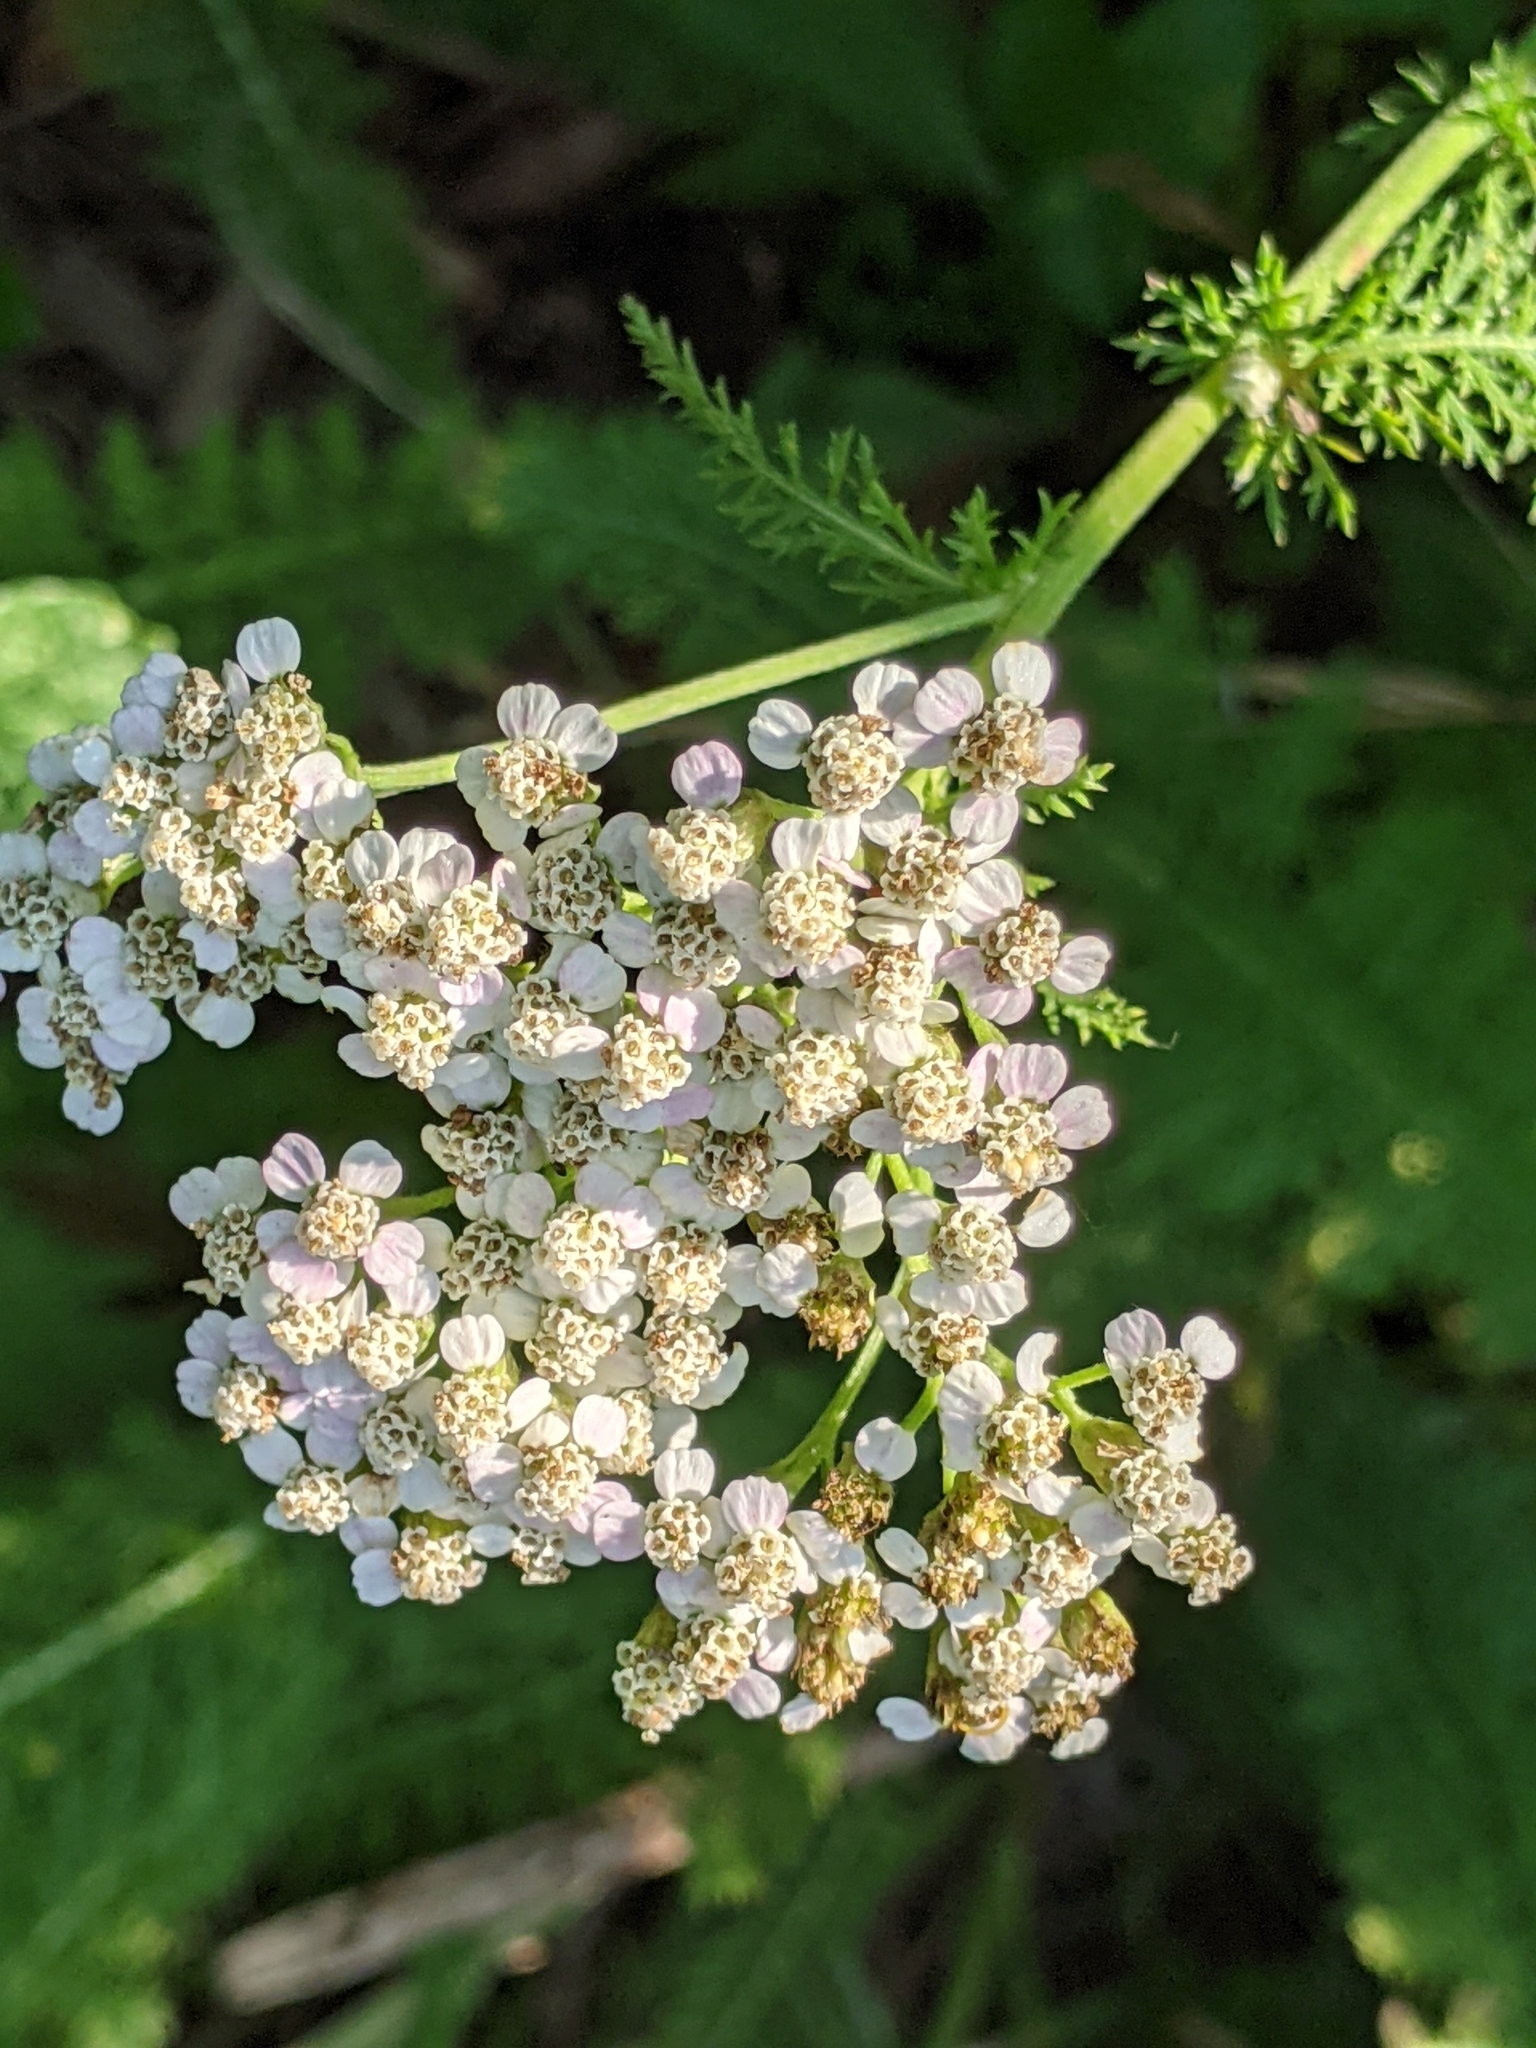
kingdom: Plantae
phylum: Tracheophyta
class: Magnoliopsida
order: Asterales
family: Asteraceae
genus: Achillea
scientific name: Achillea millefolium
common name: Yarrow
